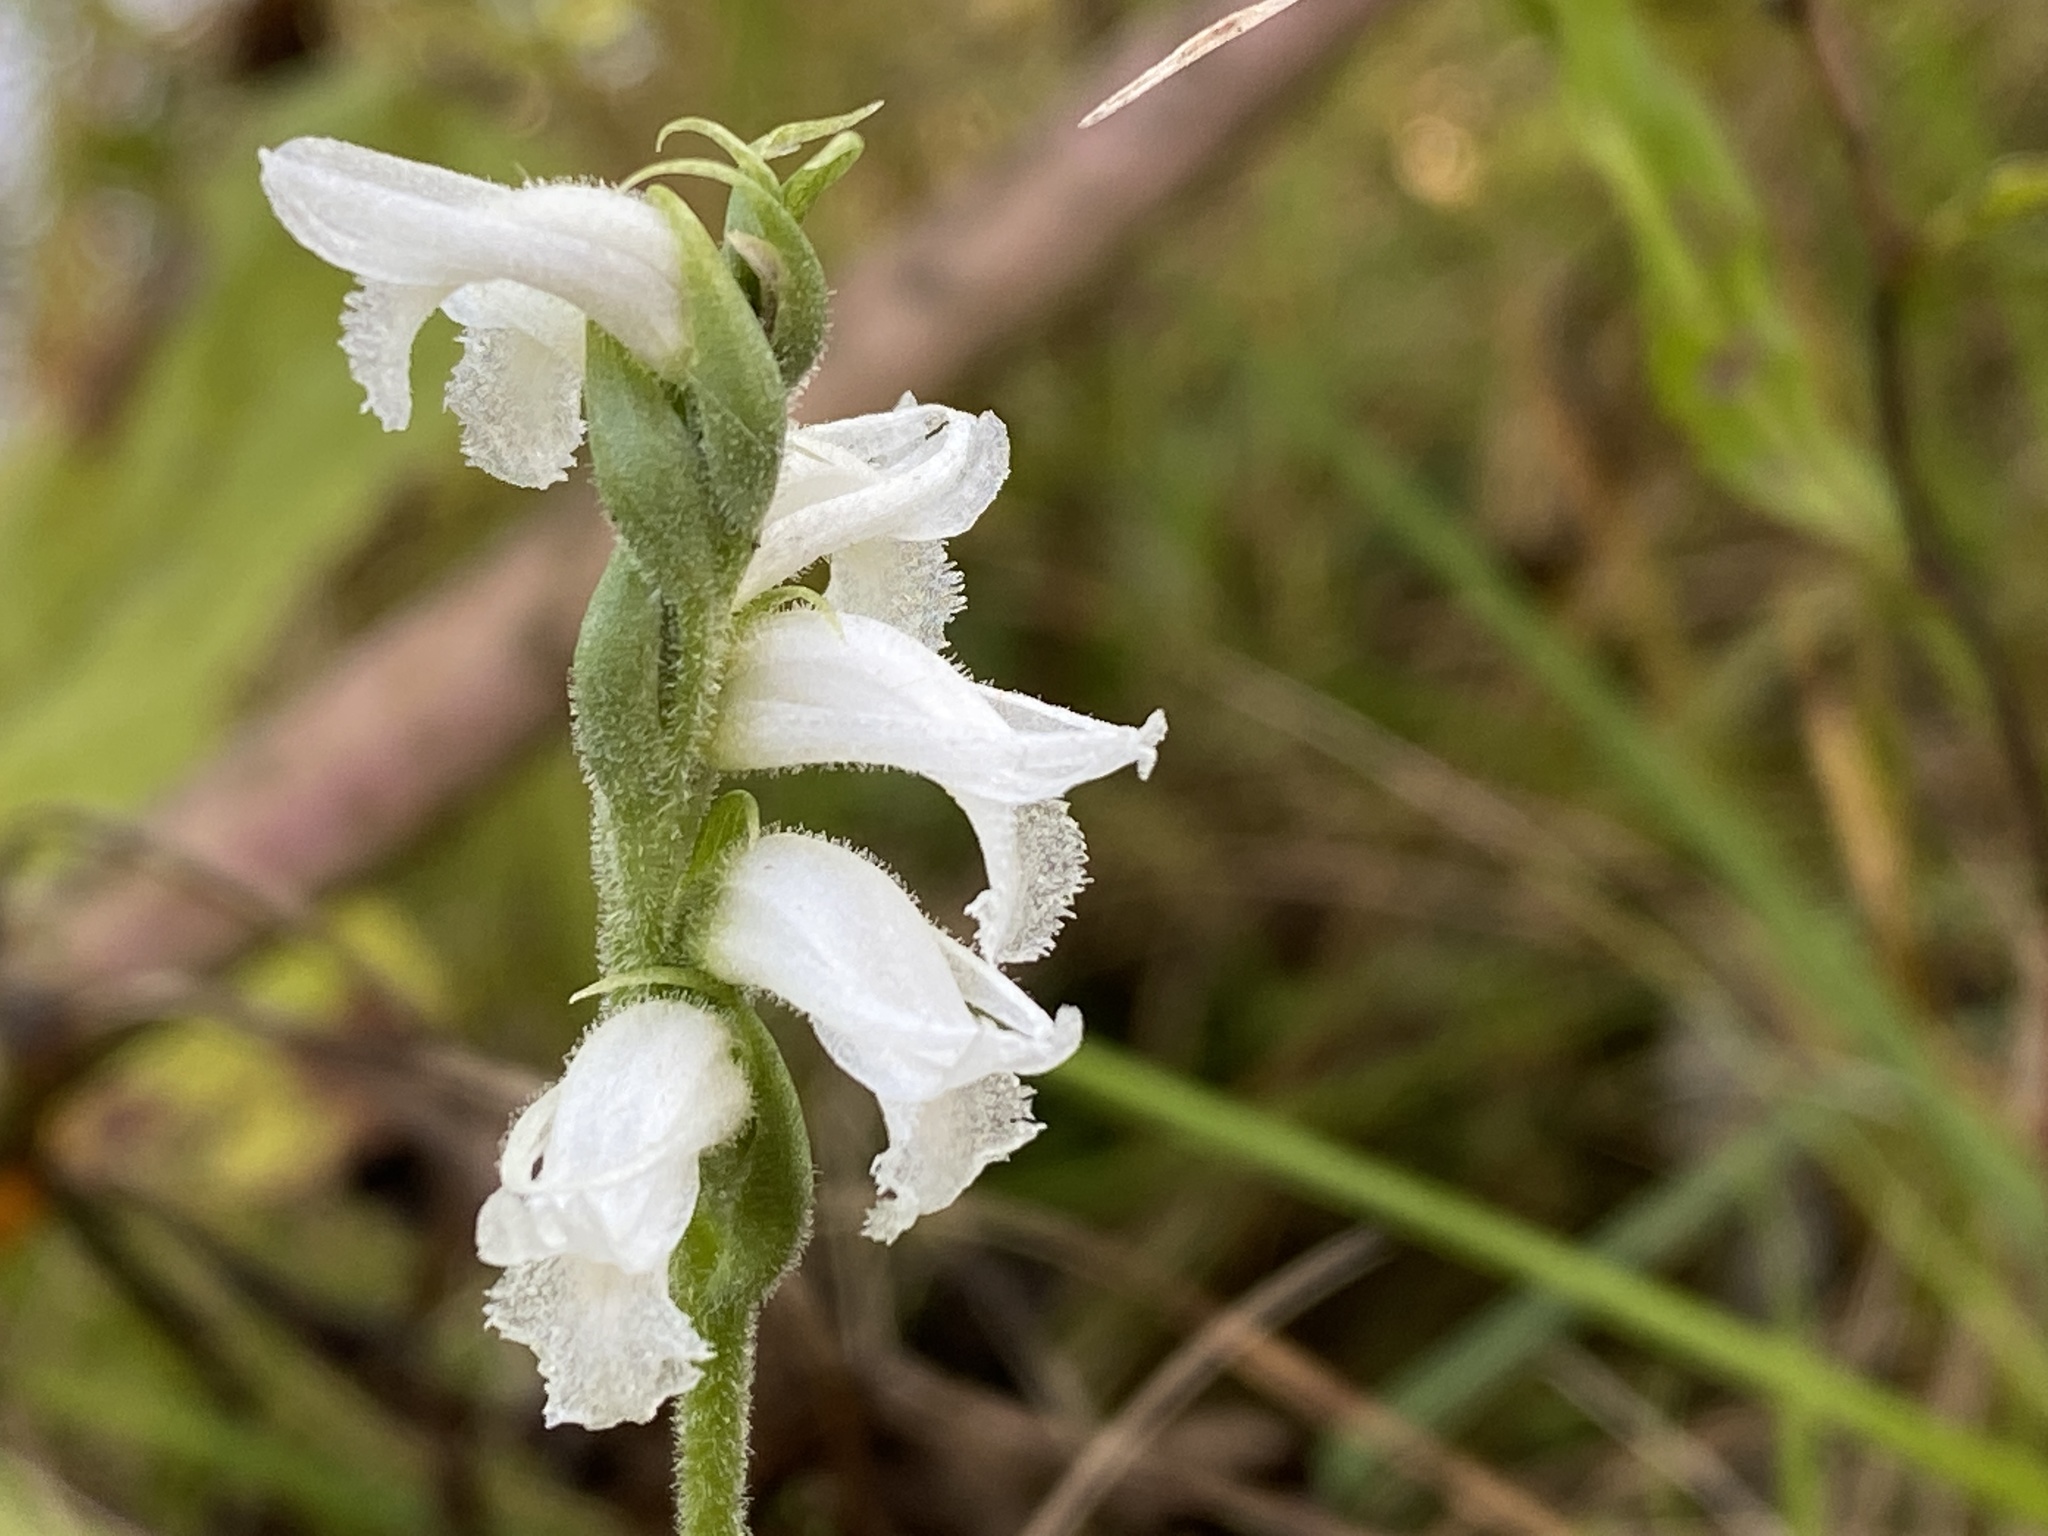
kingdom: Plantae
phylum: Tracheophyta
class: Liliopsida
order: Asparagales
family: Orchidaceae
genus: Spiranthes
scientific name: Spiranthes incurva
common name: Sphinx ladies'-tresses
